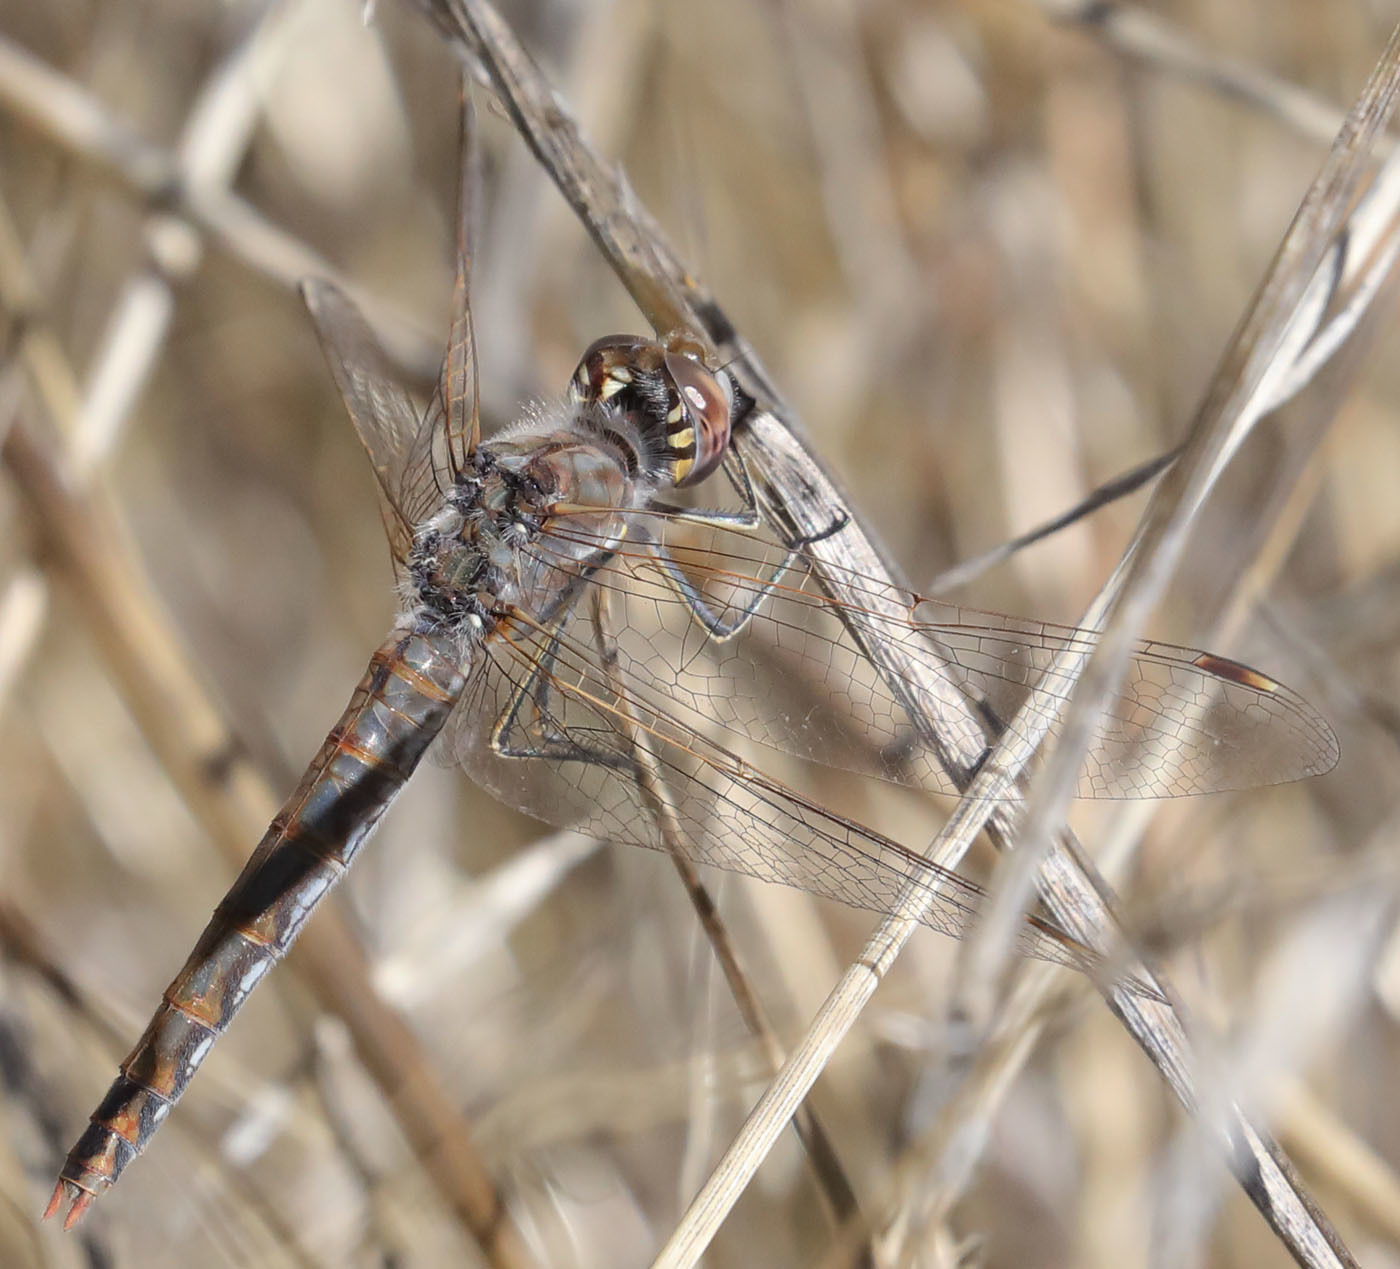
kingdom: Animalia
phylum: Arthropoda
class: Insecta
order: Odonata
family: Libellulidae
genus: Sympetrum
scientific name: Sympetrum corruptum
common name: Variegated meadowhawk
